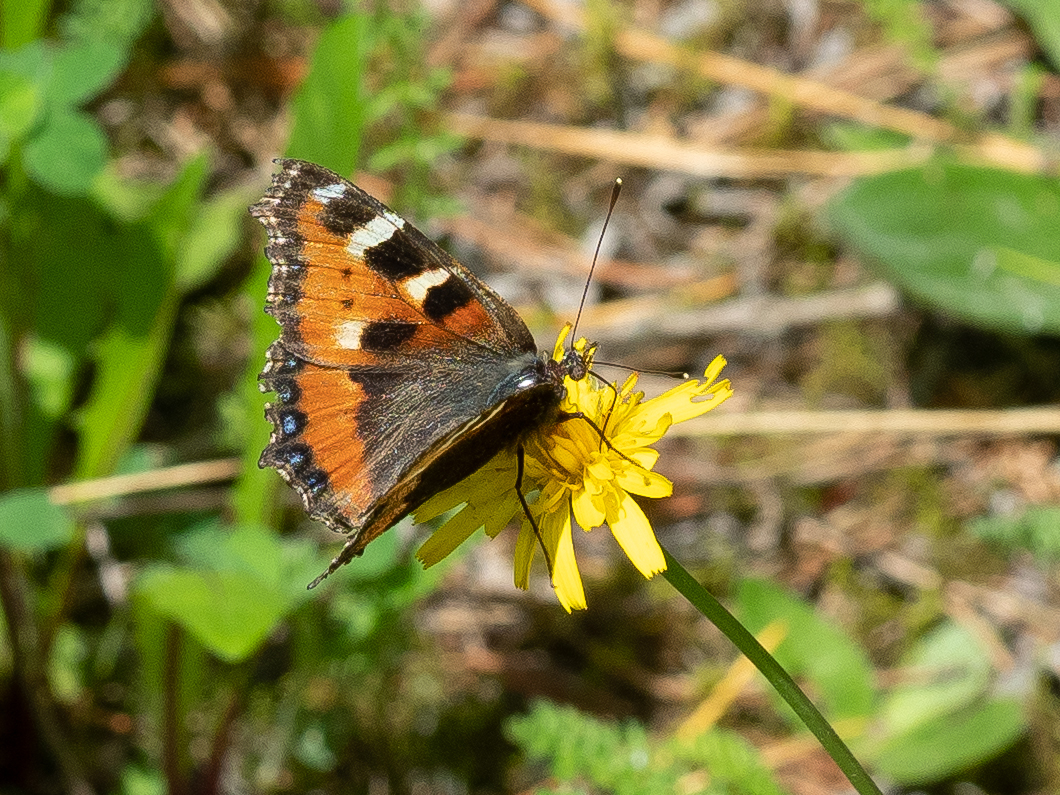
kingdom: Animalia
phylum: Arthropoda
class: Insecta
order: Lepidoptera
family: Nymphalidae
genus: Aglais
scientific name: Aglais urticae
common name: Small tortoiseshell
